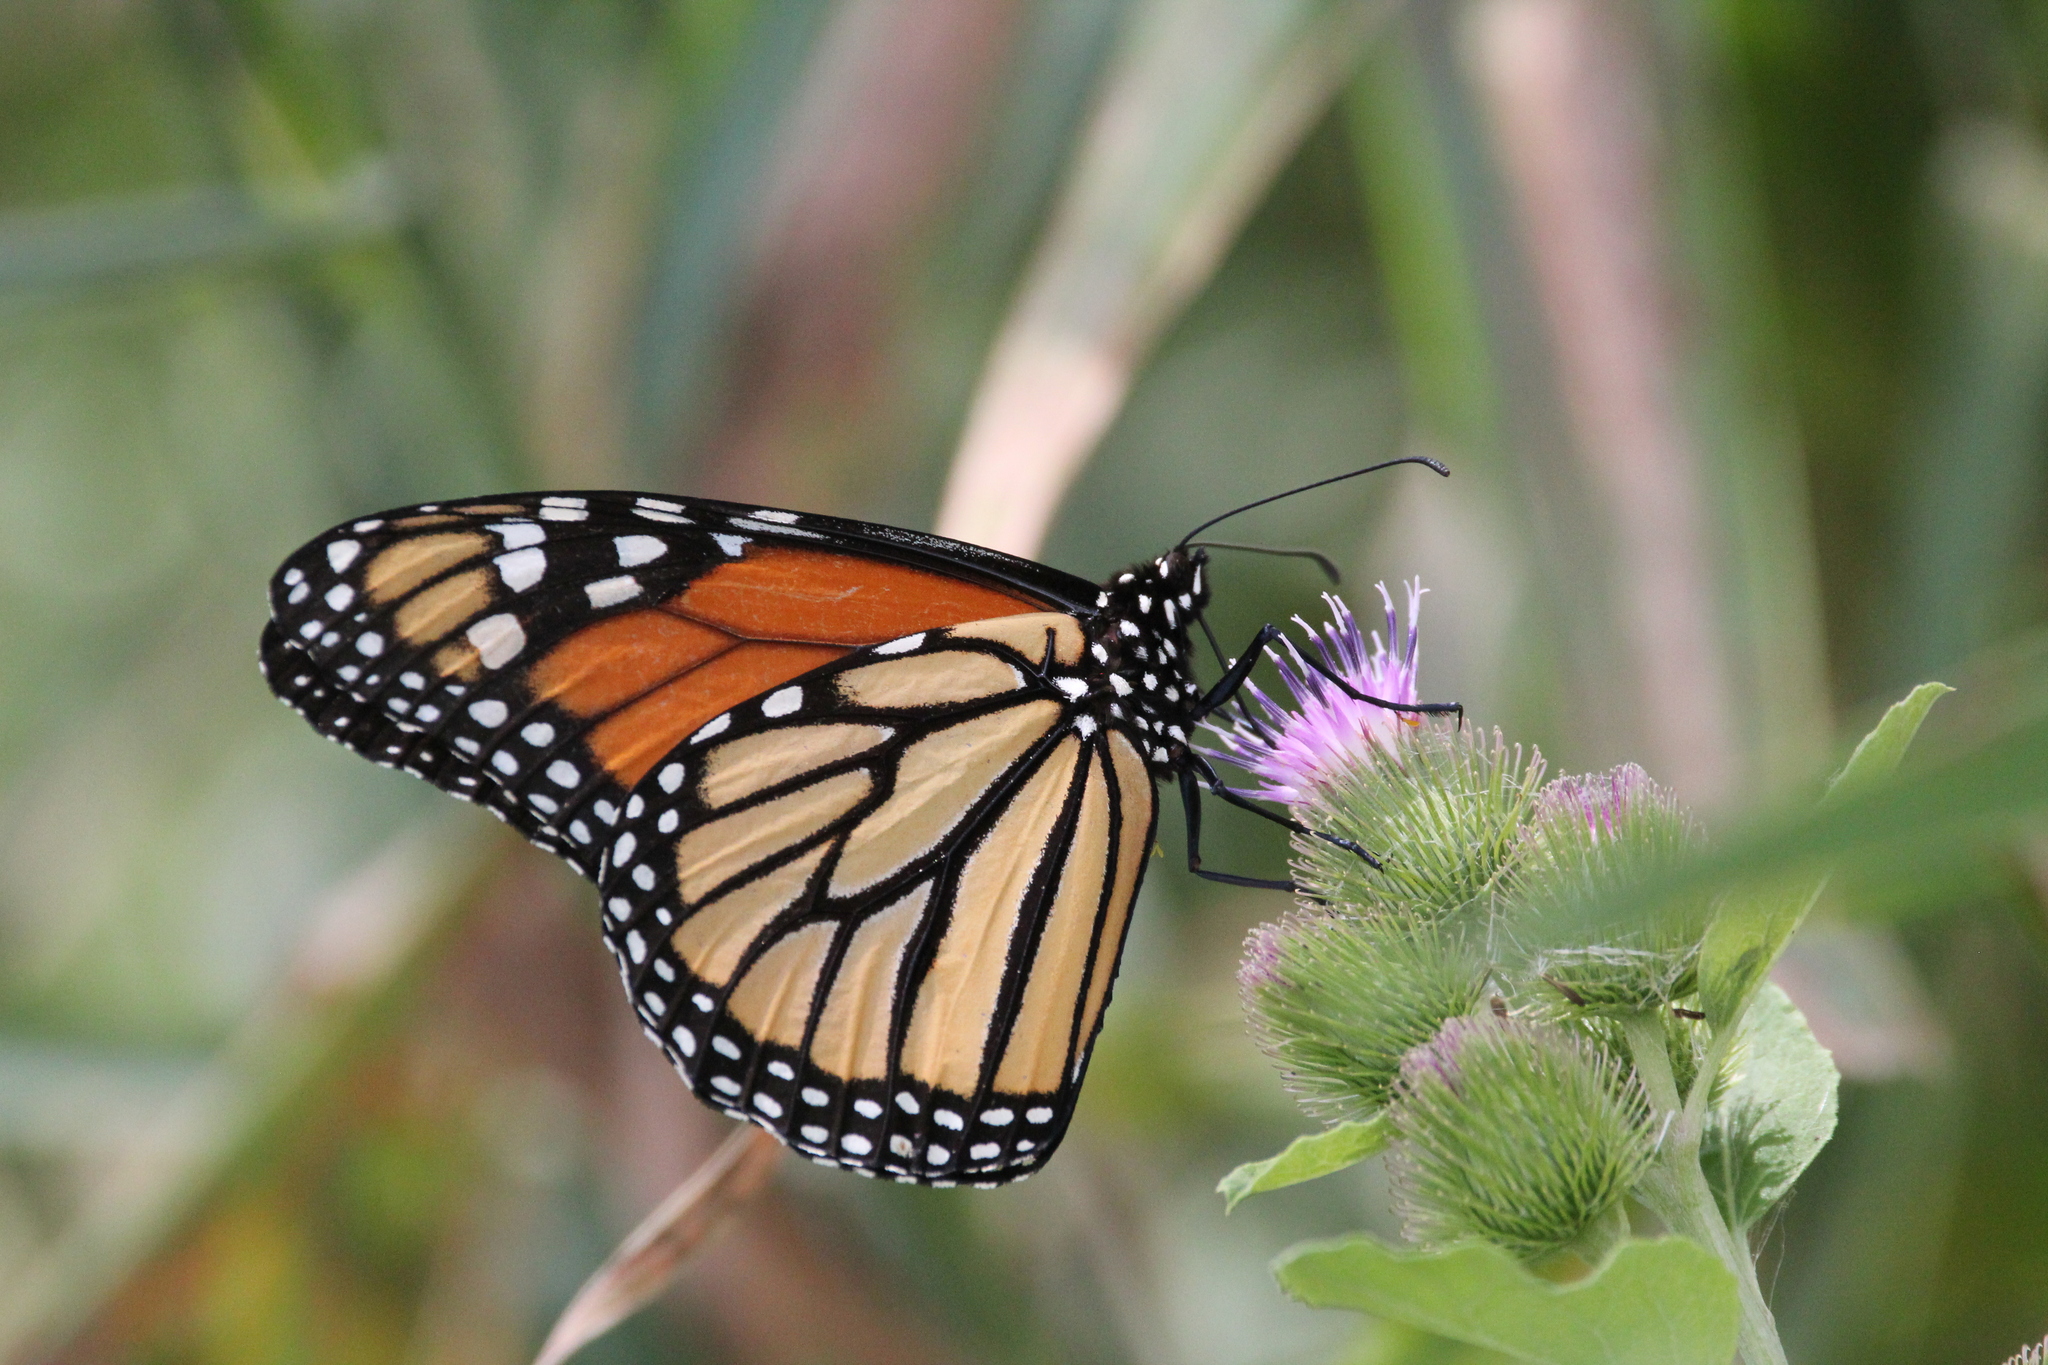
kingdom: Animalia
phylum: Arthropoda
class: Insecta
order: Lepidoptera
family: Nymphalidae
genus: Danaus
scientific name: Danaus plexippus
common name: Monarch
